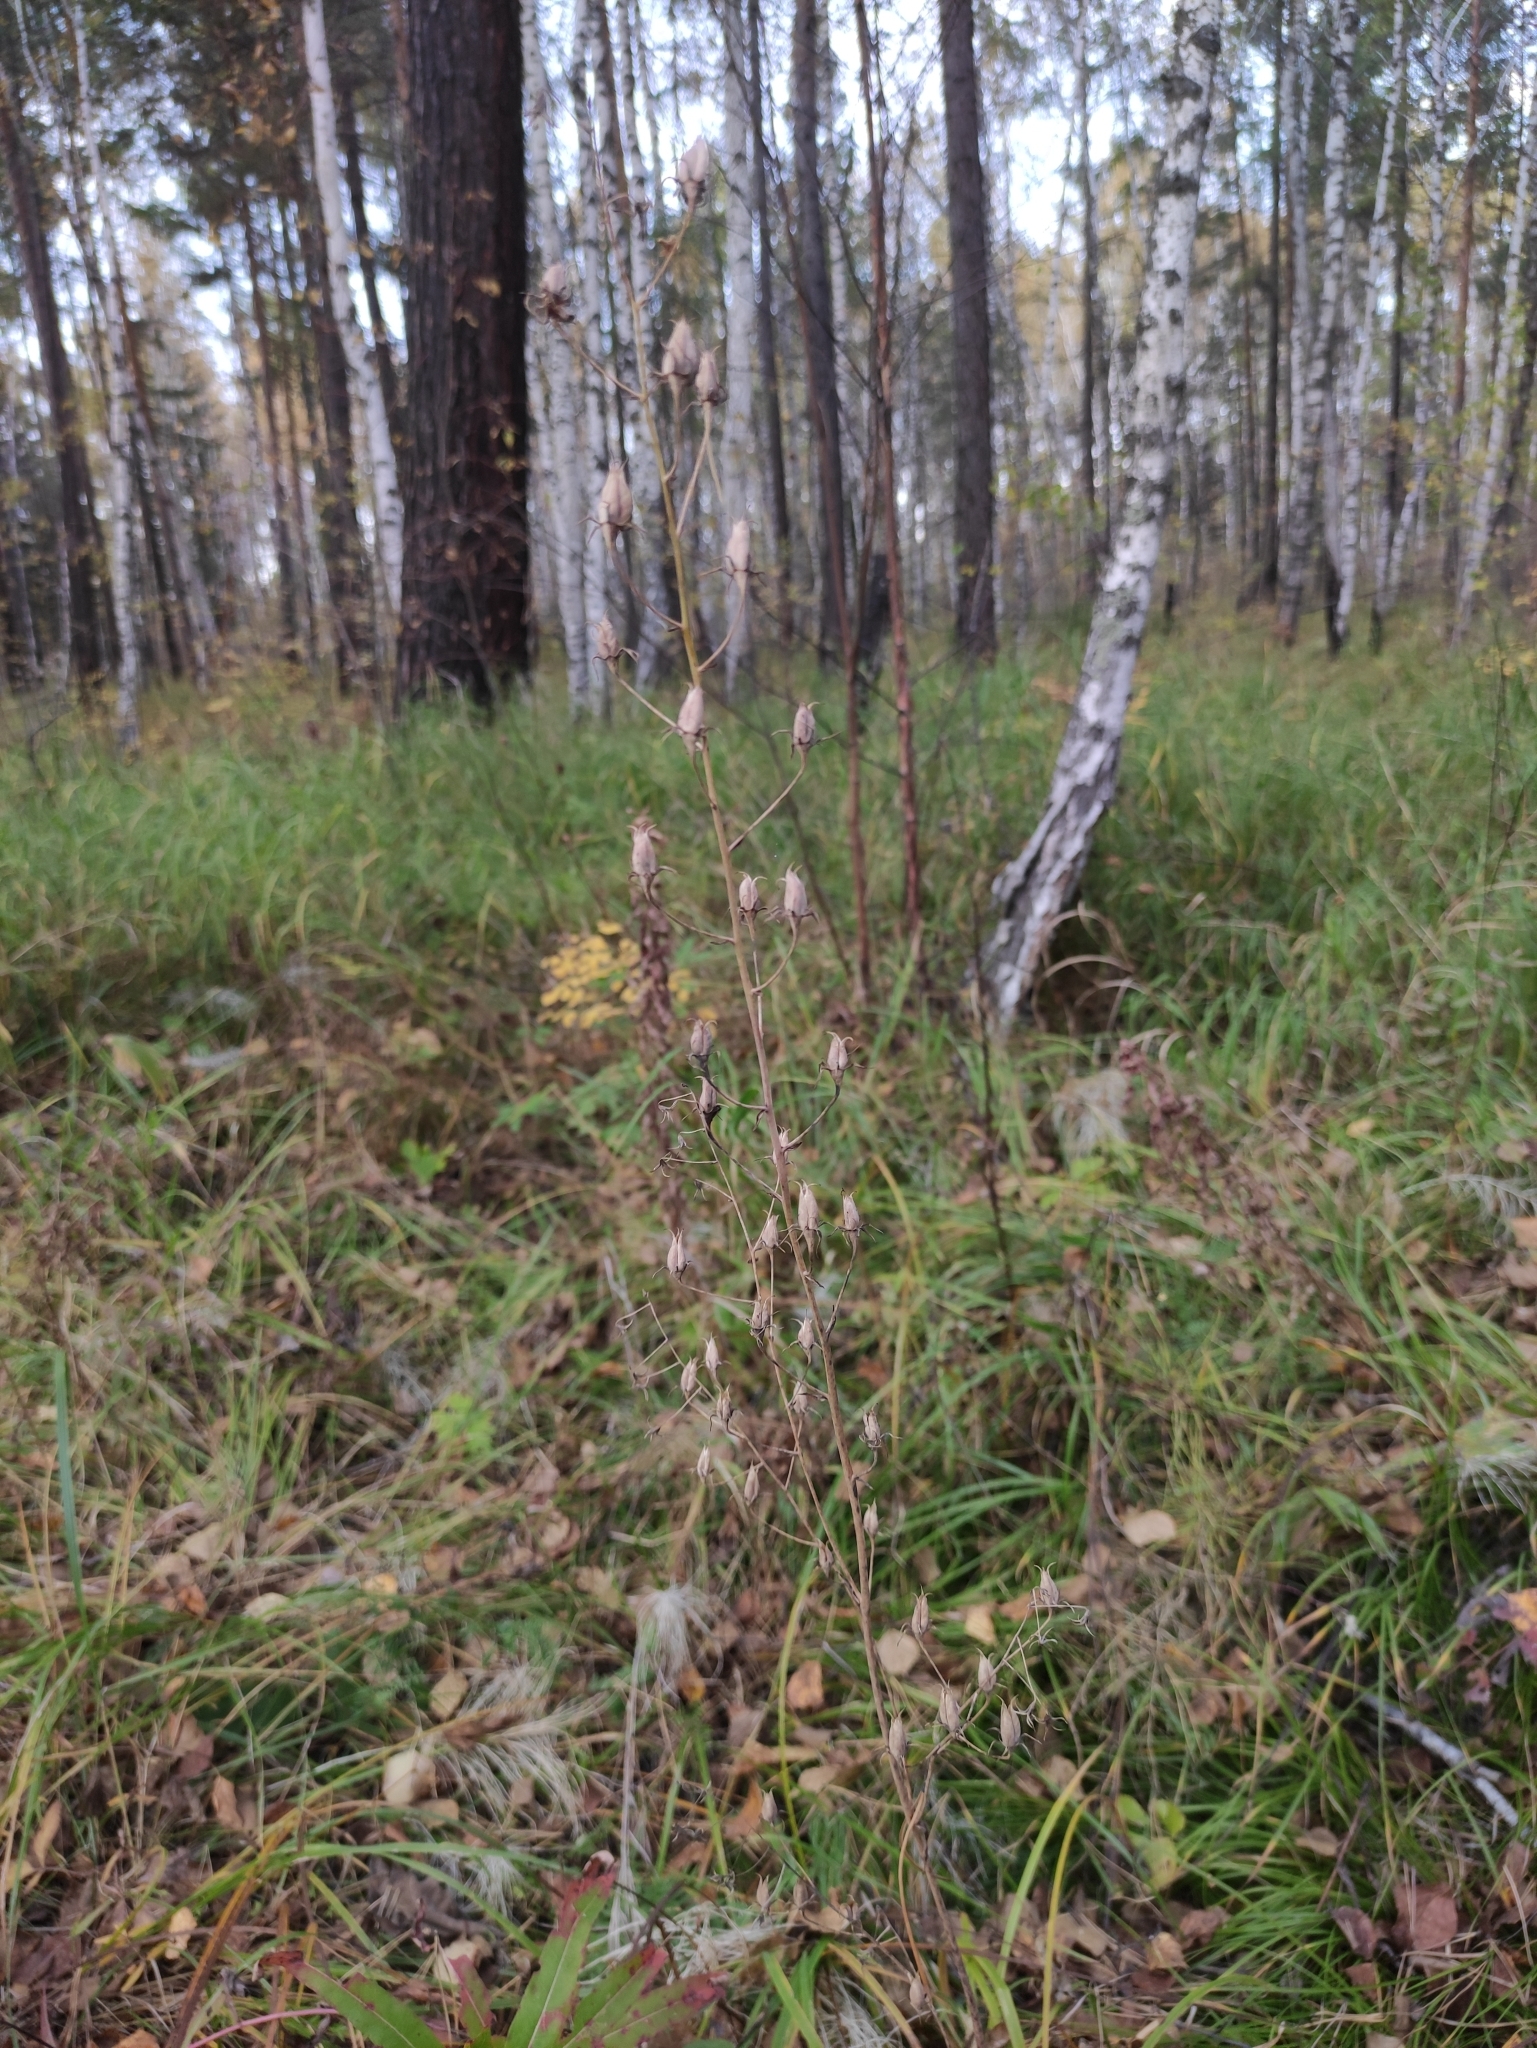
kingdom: Plantae
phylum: Tracheophyta
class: Liliopsida
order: Liliales
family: Melanthiaceae
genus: Anticlea
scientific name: Anticlea sibirica
